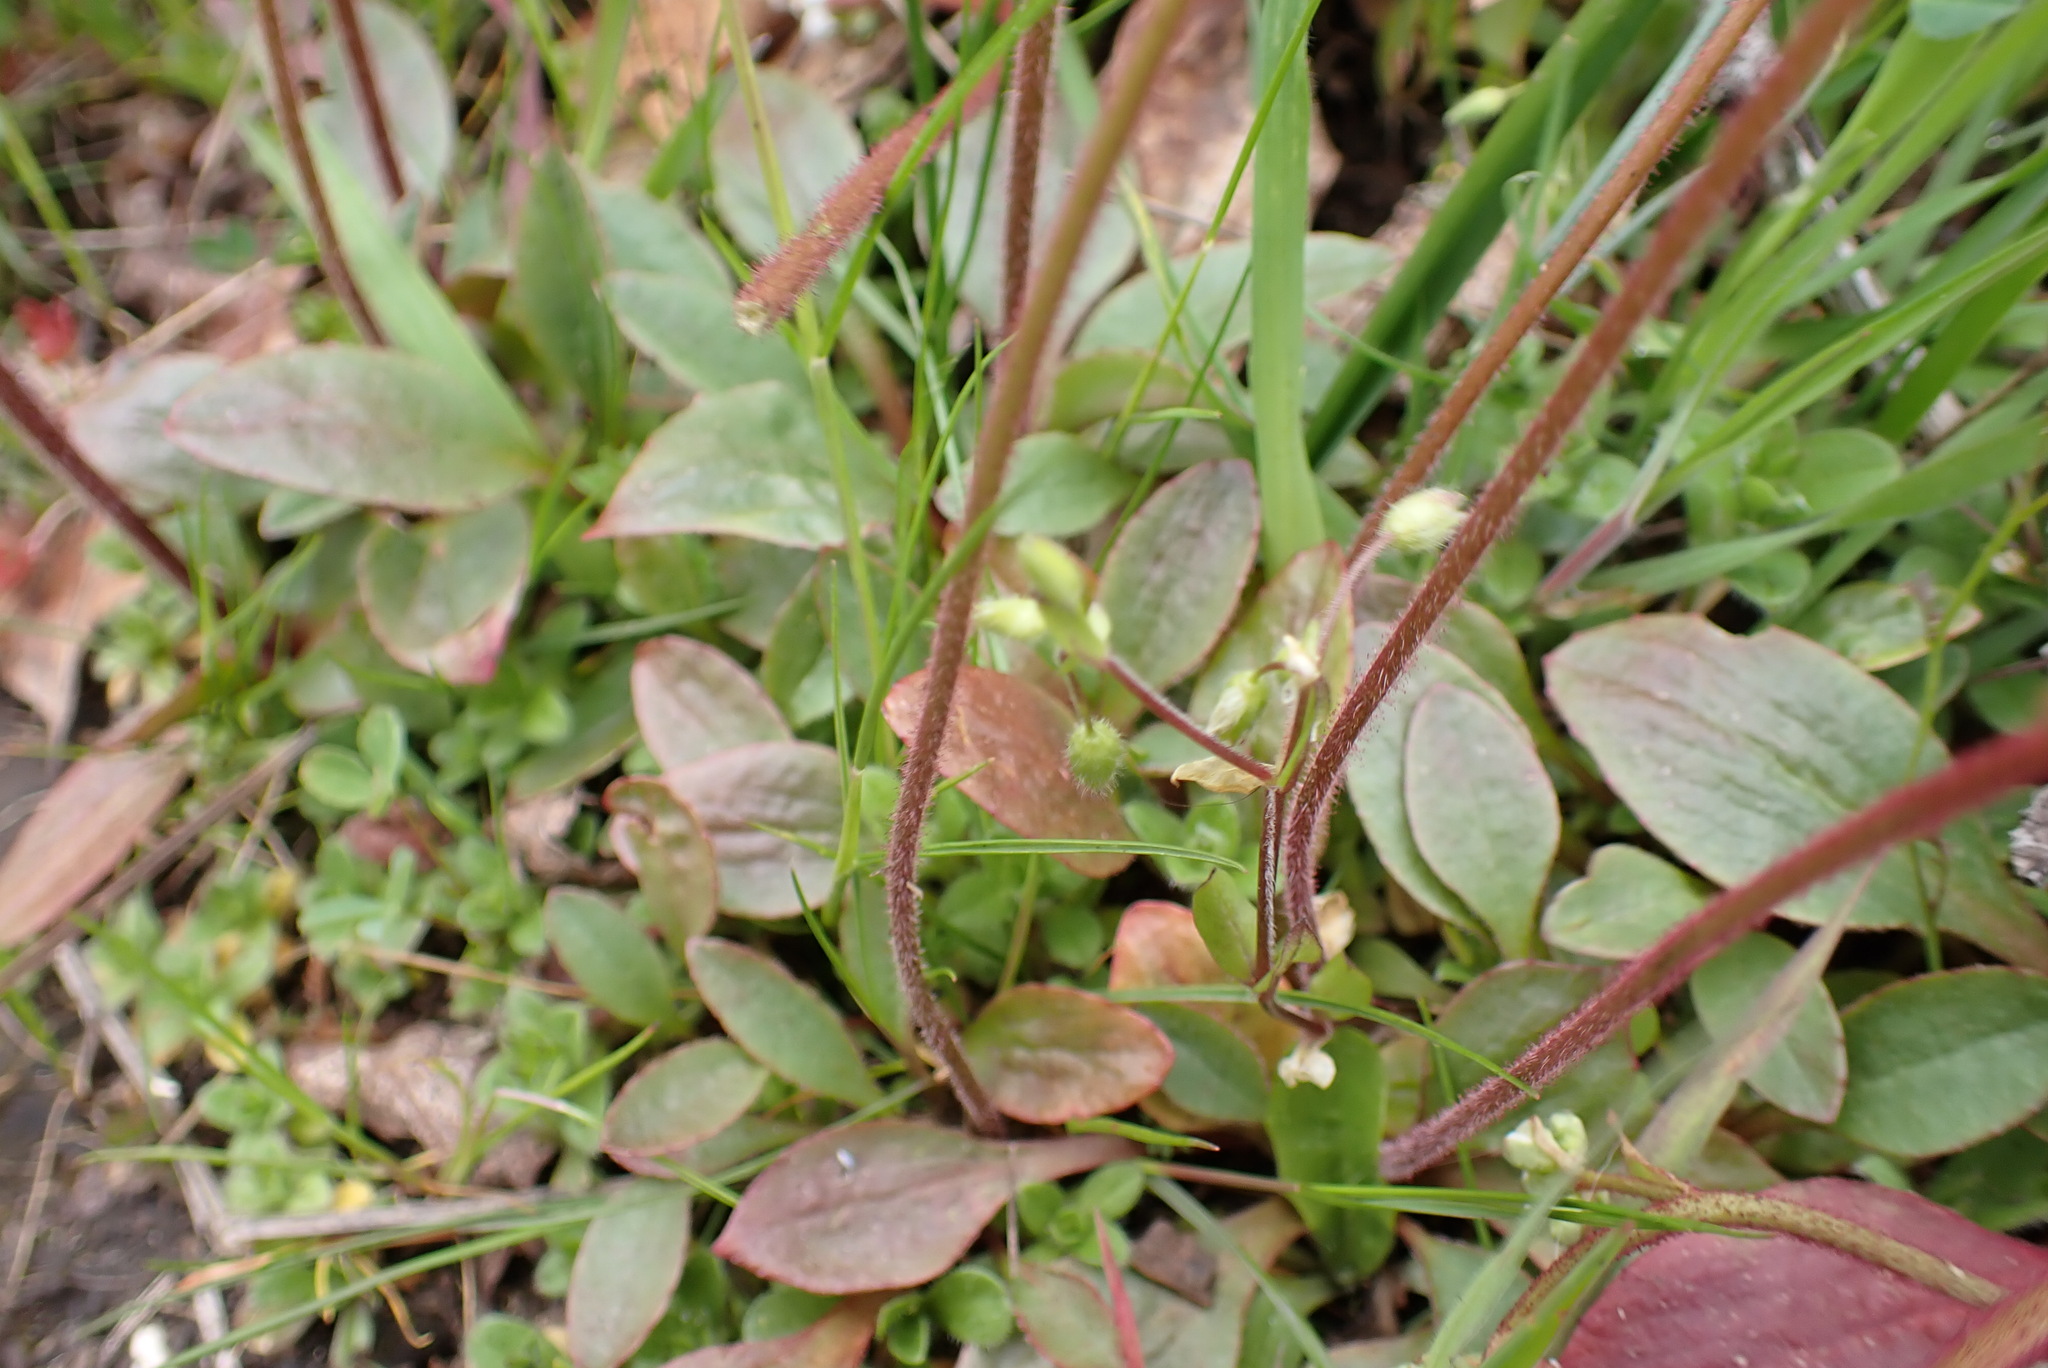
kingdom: Plantae
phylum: Tracheophyta
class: Magnoliopsida
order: Saxifragales
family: Saxifragaceae
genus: Micranthes
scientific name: Micranthes integrifolia
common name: Wholeleaf saxifrage
